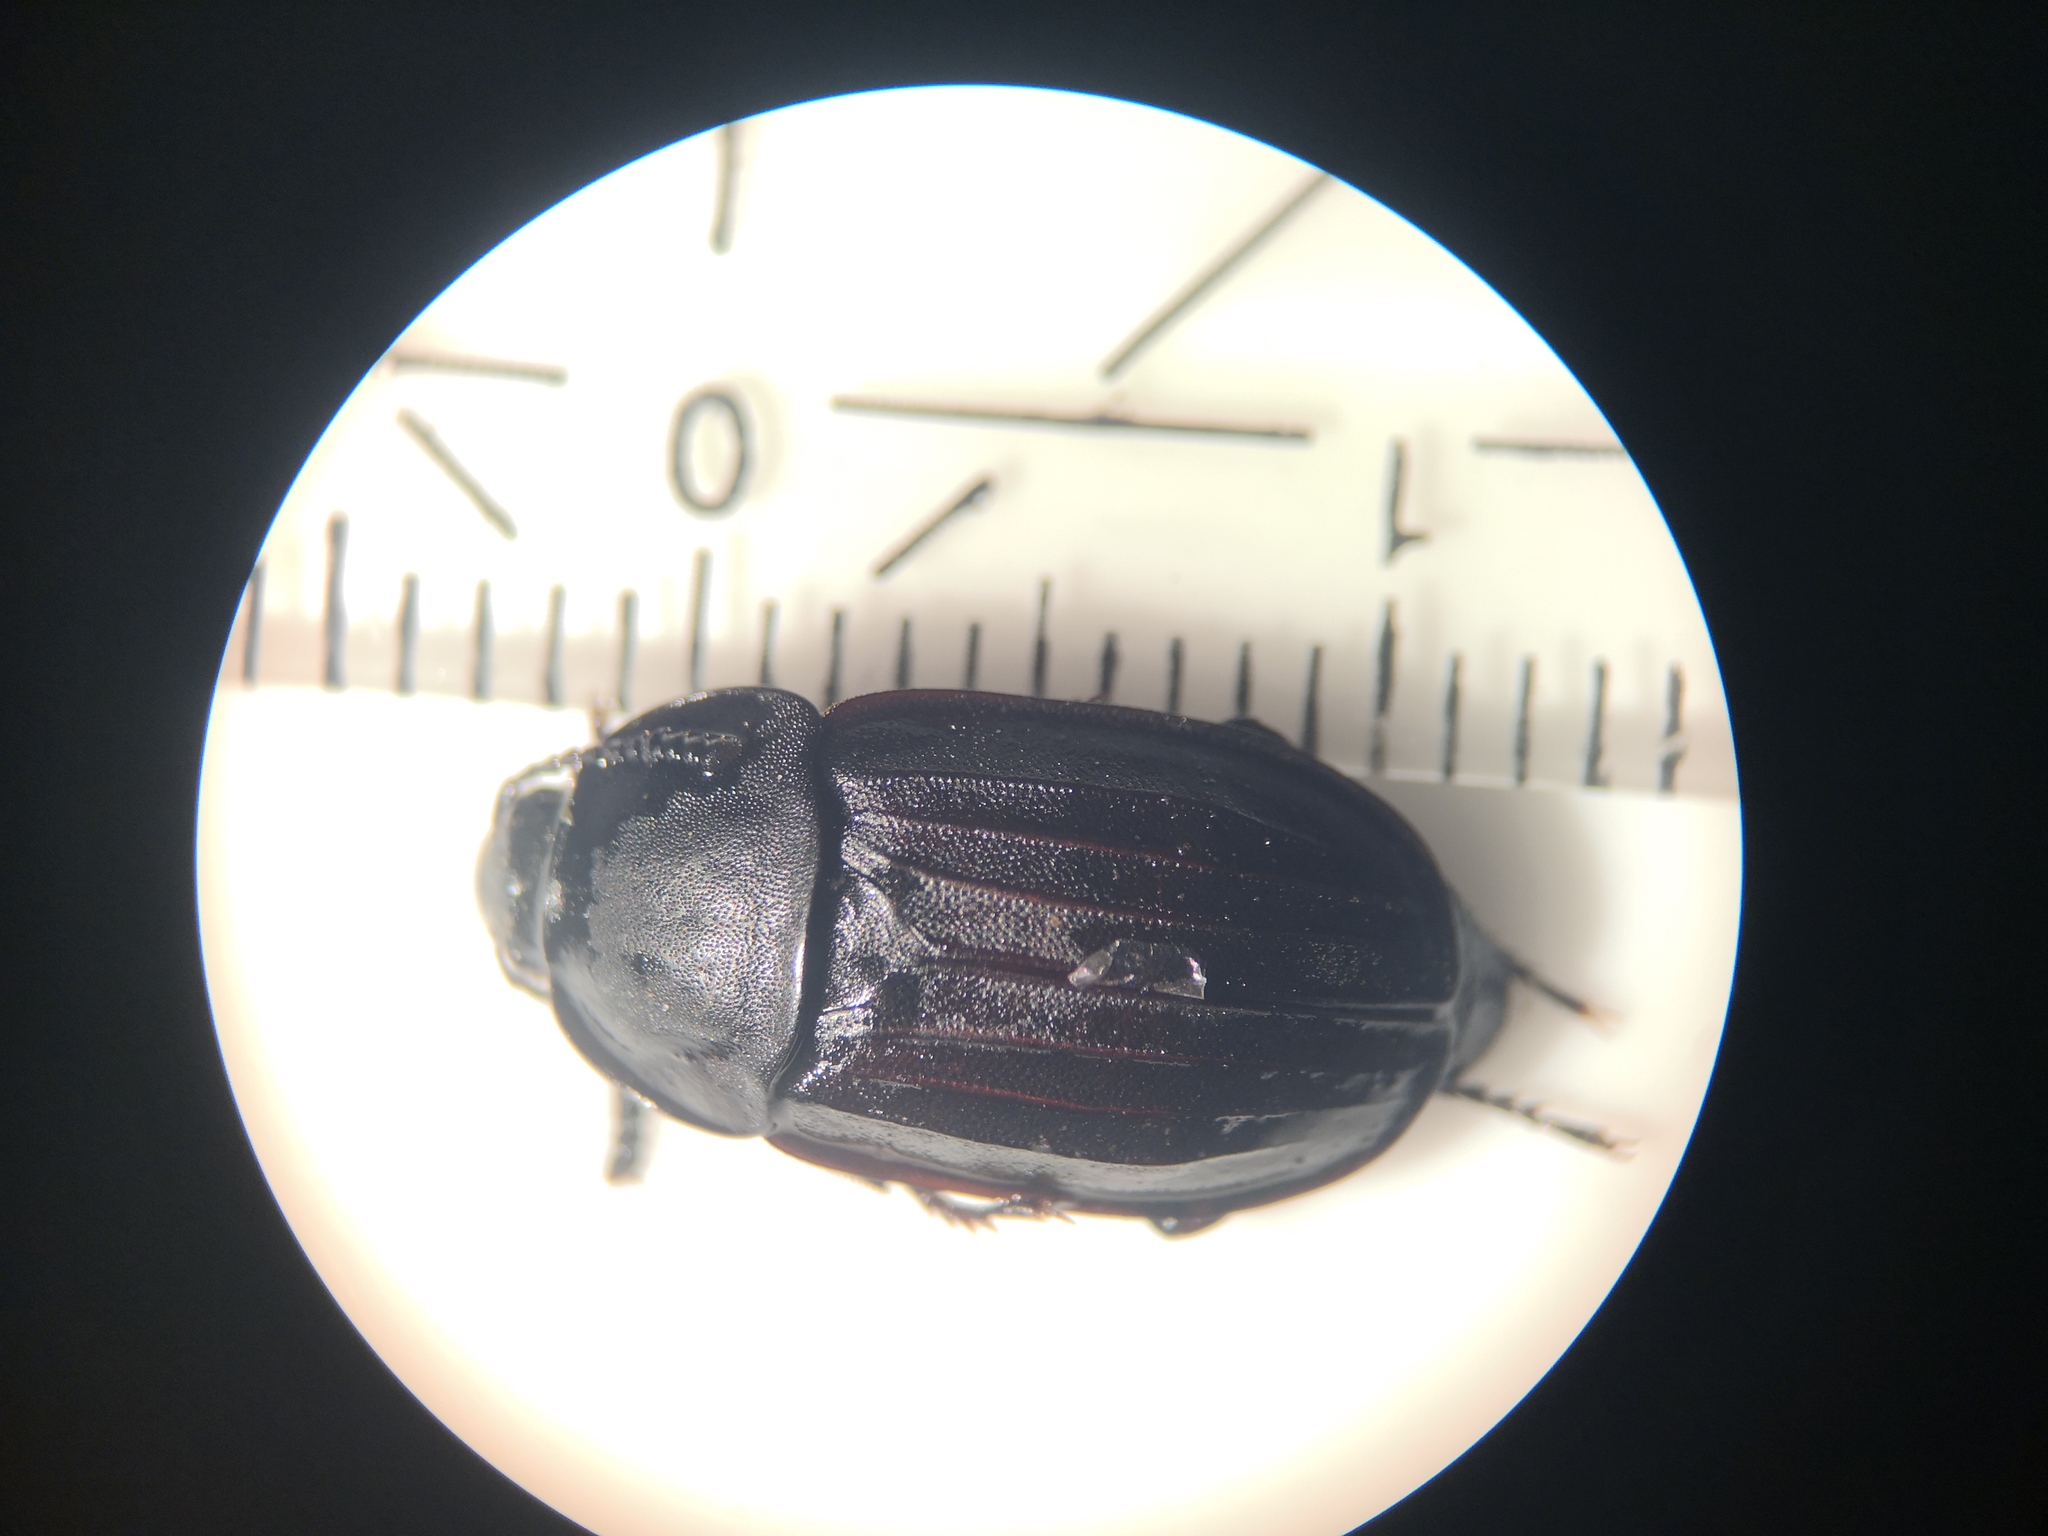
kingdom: Animalia
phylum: Arthropoda
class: Insecta
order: Coleoptera
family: Staphylinidae
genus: Silpha
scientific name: Silpha tristis
